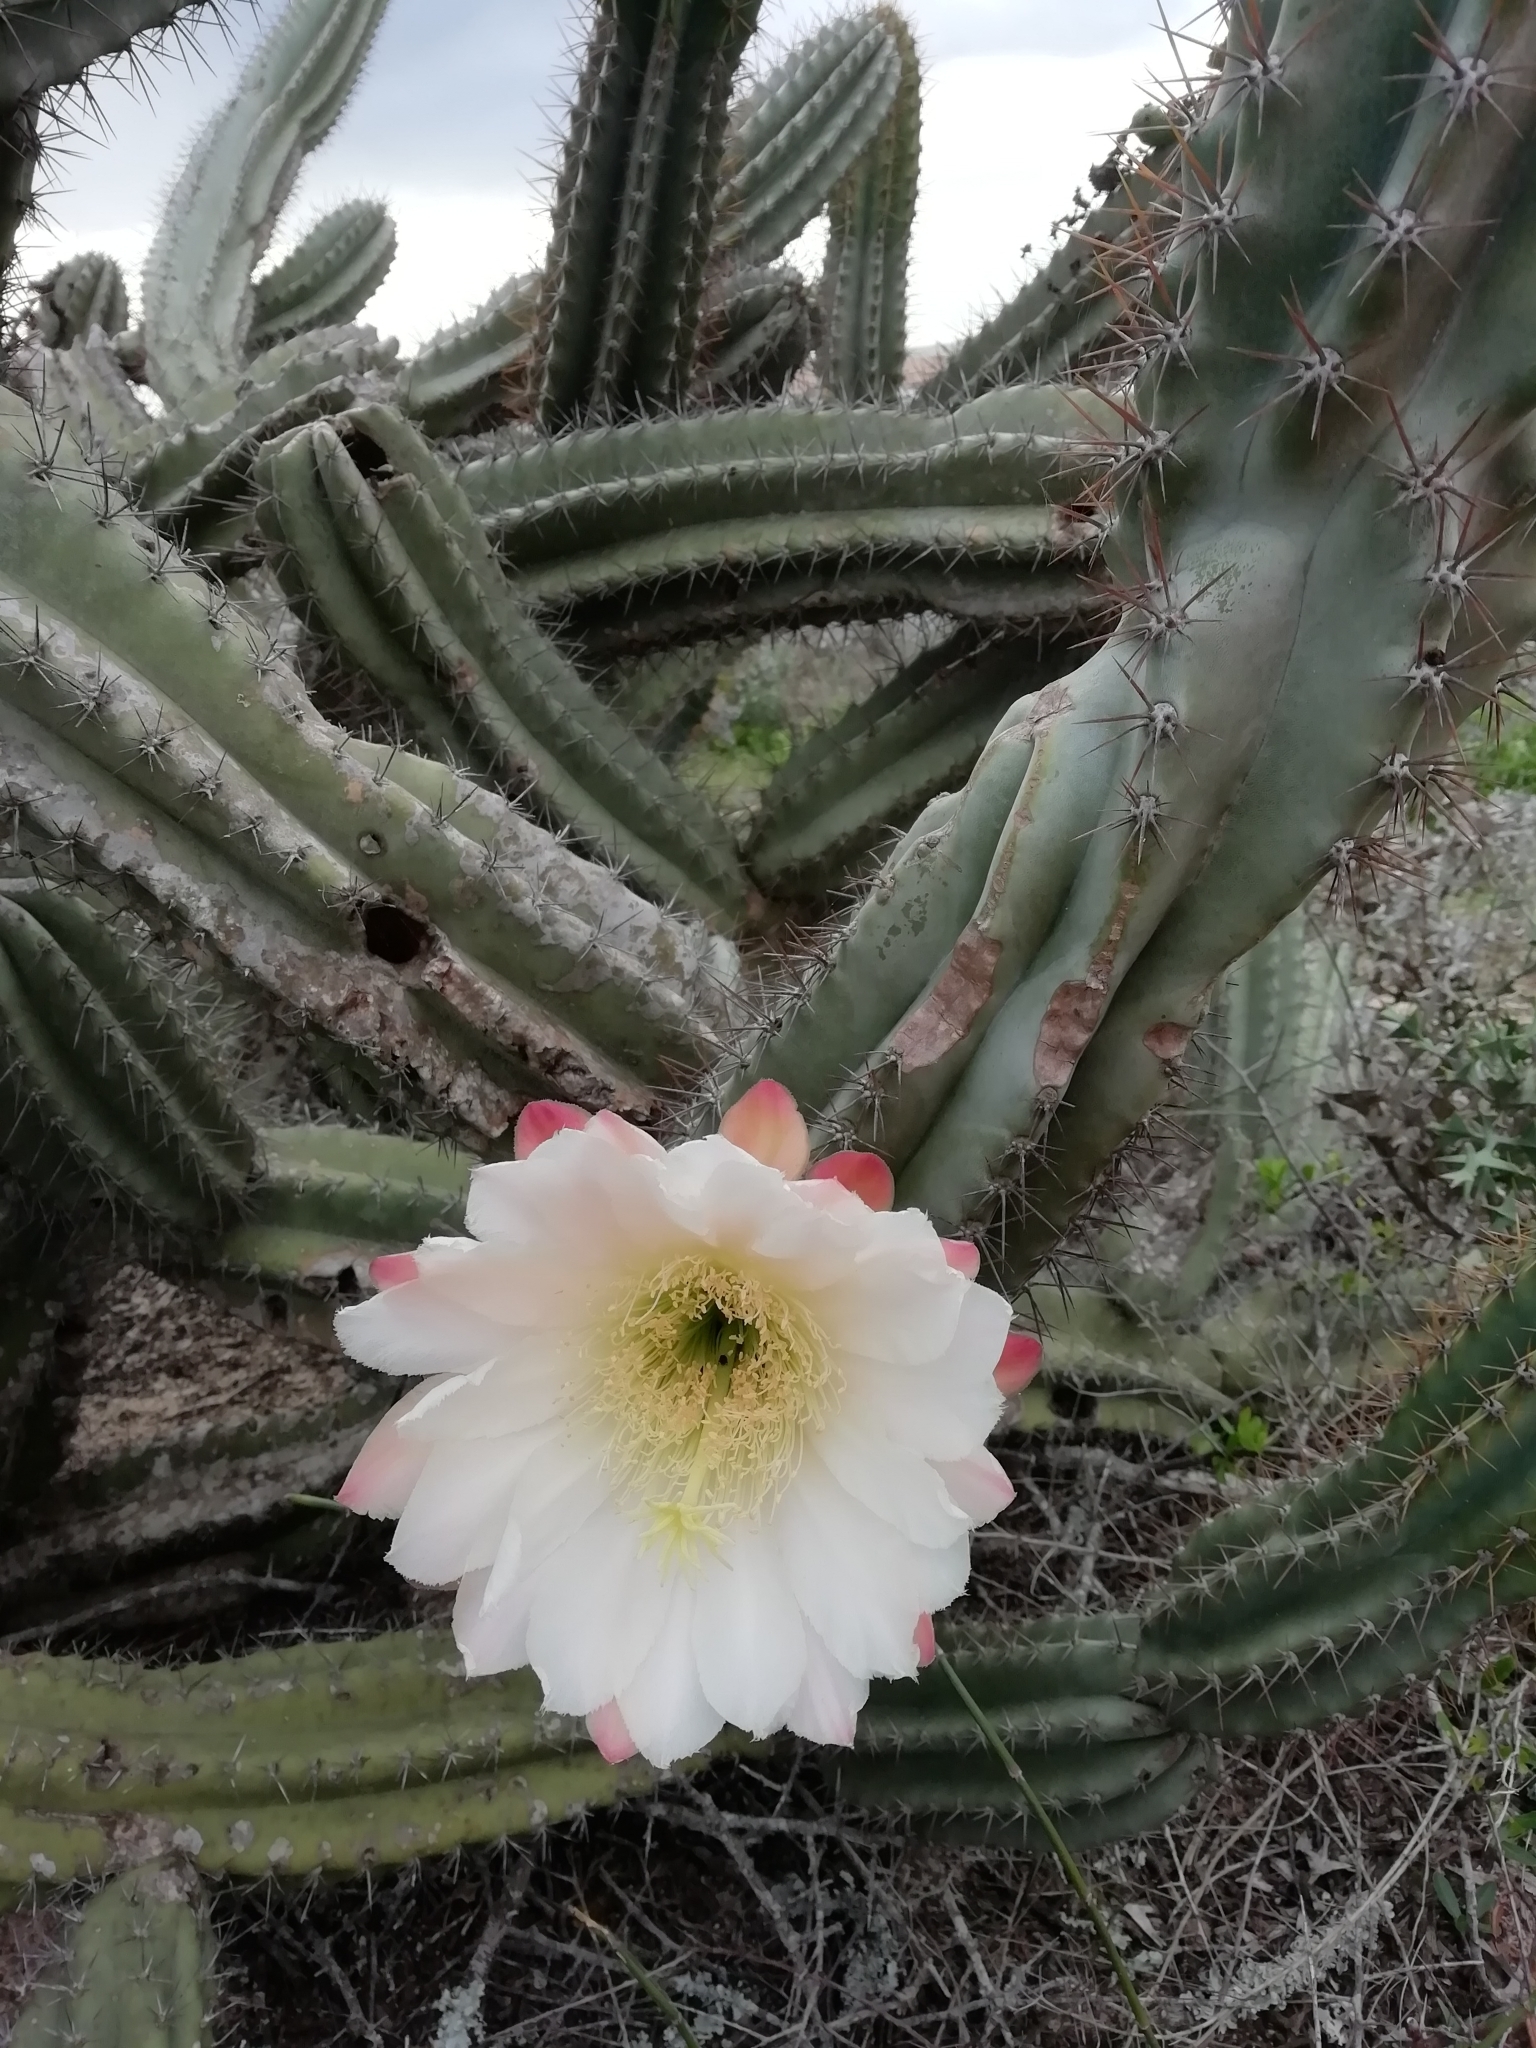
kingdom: Plantae
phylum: Tracheophyta
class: Magnoliopsida
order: Caryophyllales
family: Cactaceae
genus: Cereus
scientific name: Cereus hildmannianus
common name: Hedge cactus
